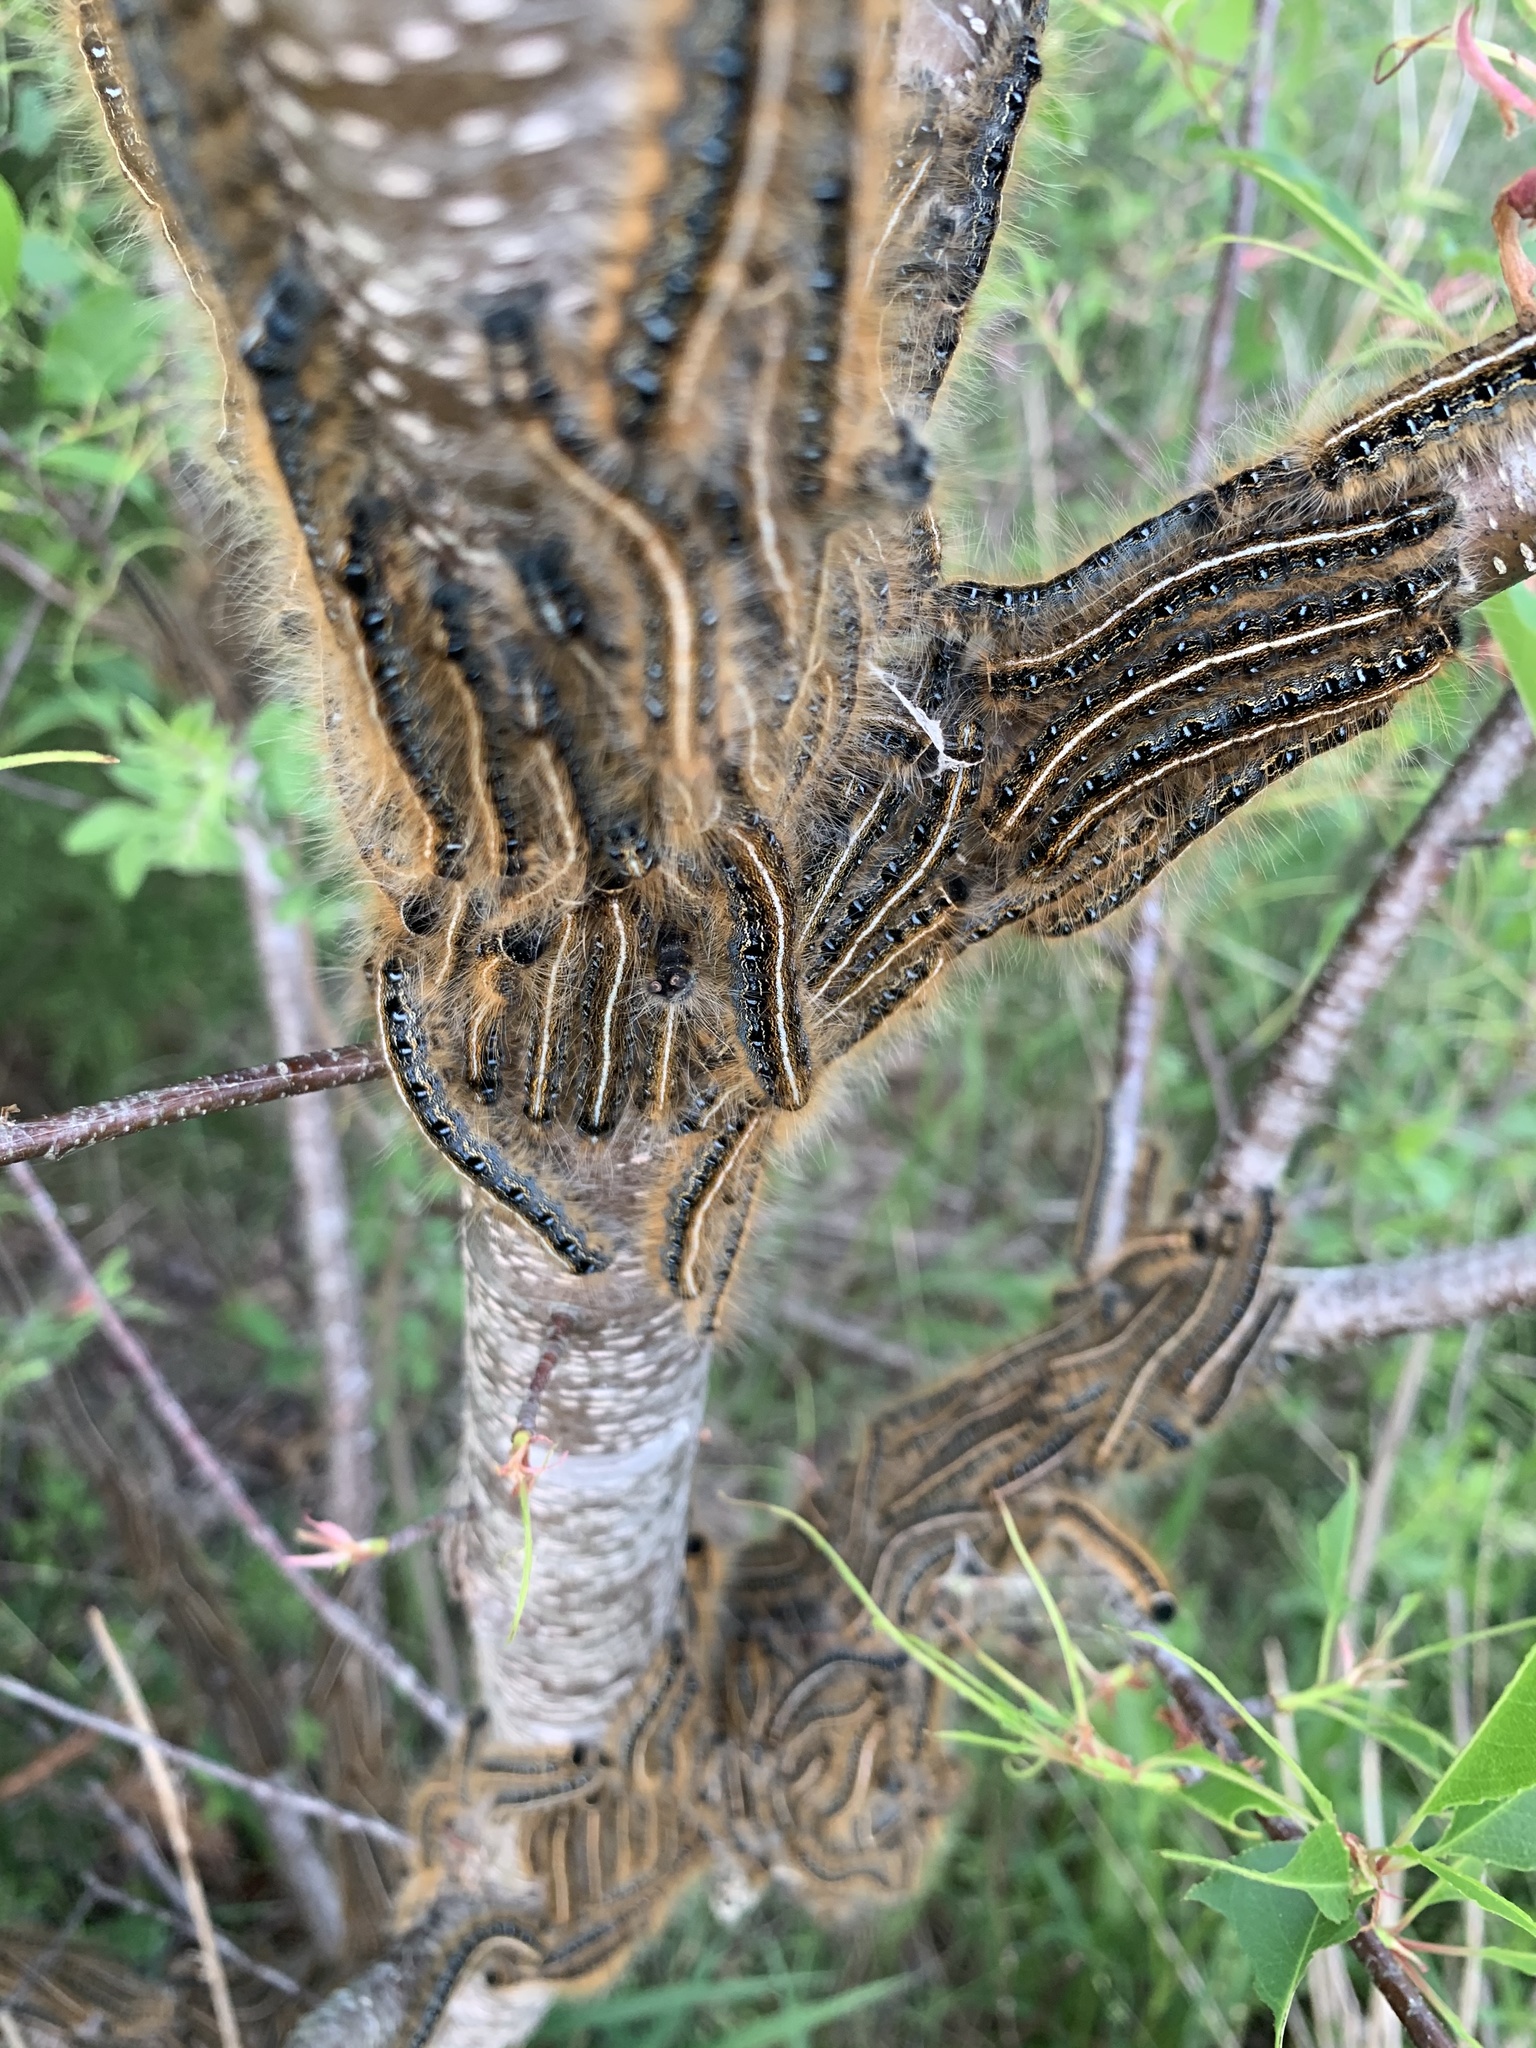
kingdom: Animalia
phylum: Arthropoda
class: Insecta
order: Lepidoptera
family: Lasiocampidae
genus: Malacosoma
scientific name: Malacosoma americana
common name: Eastern tent caterpillar moth
